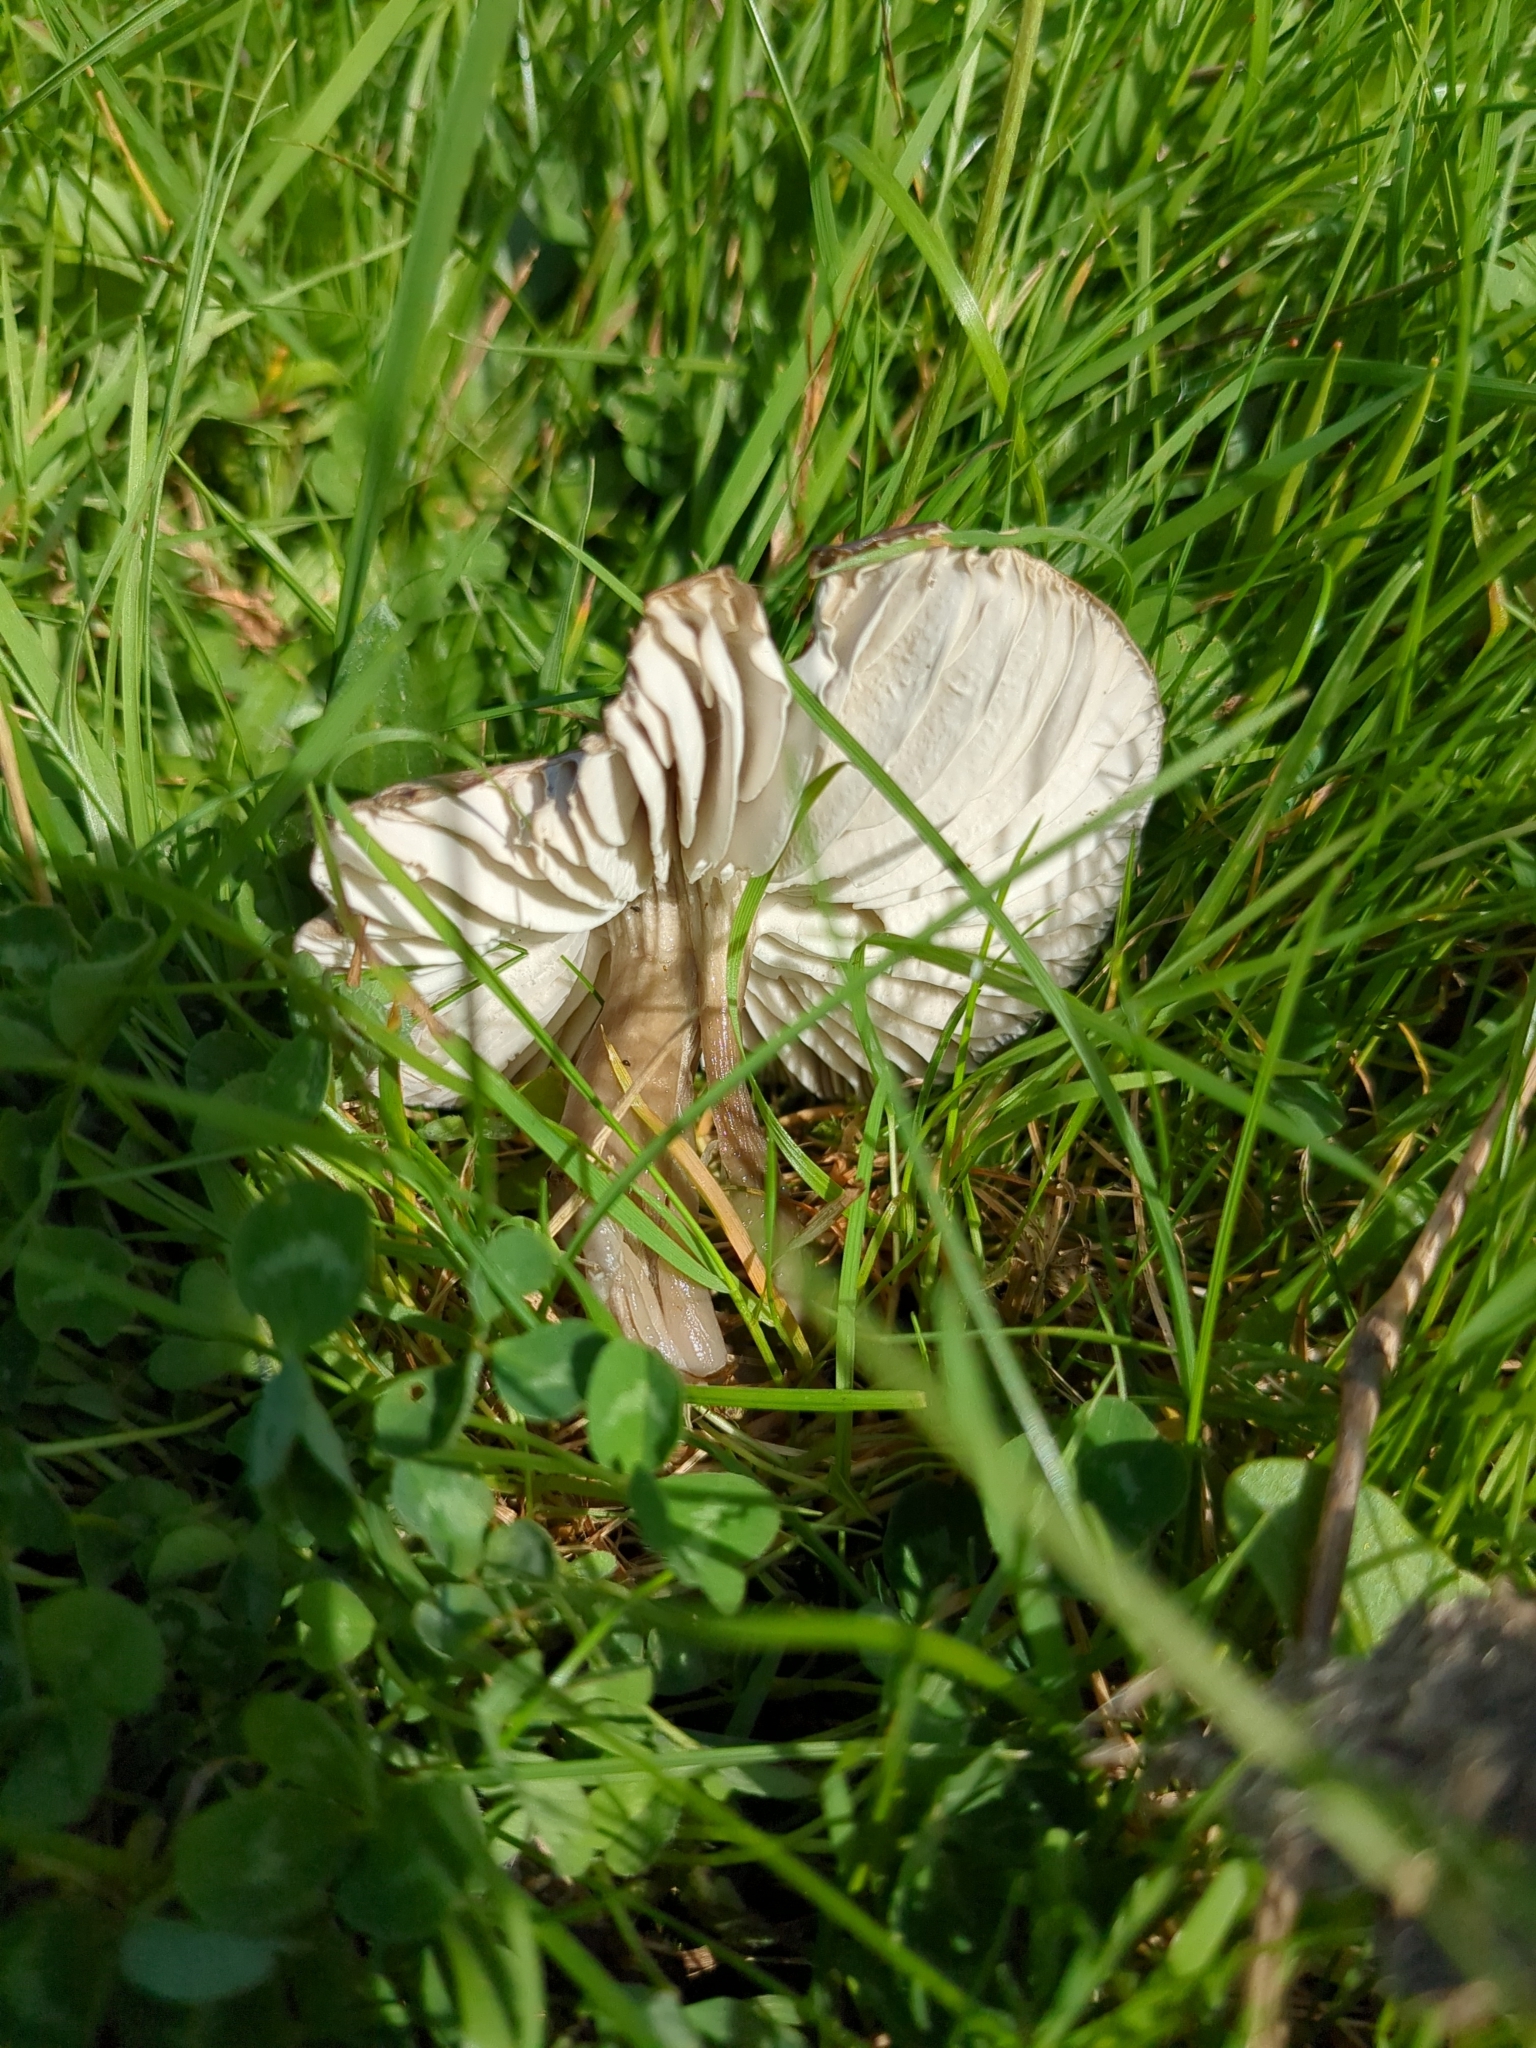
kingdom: Fungi
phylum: Basidiomycota
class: Agaricomycetes
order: Agaricales
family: Hygrophoraceae
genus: Gliophorus
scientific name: Gliophorus irrigatus
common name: Slimy waxcap
